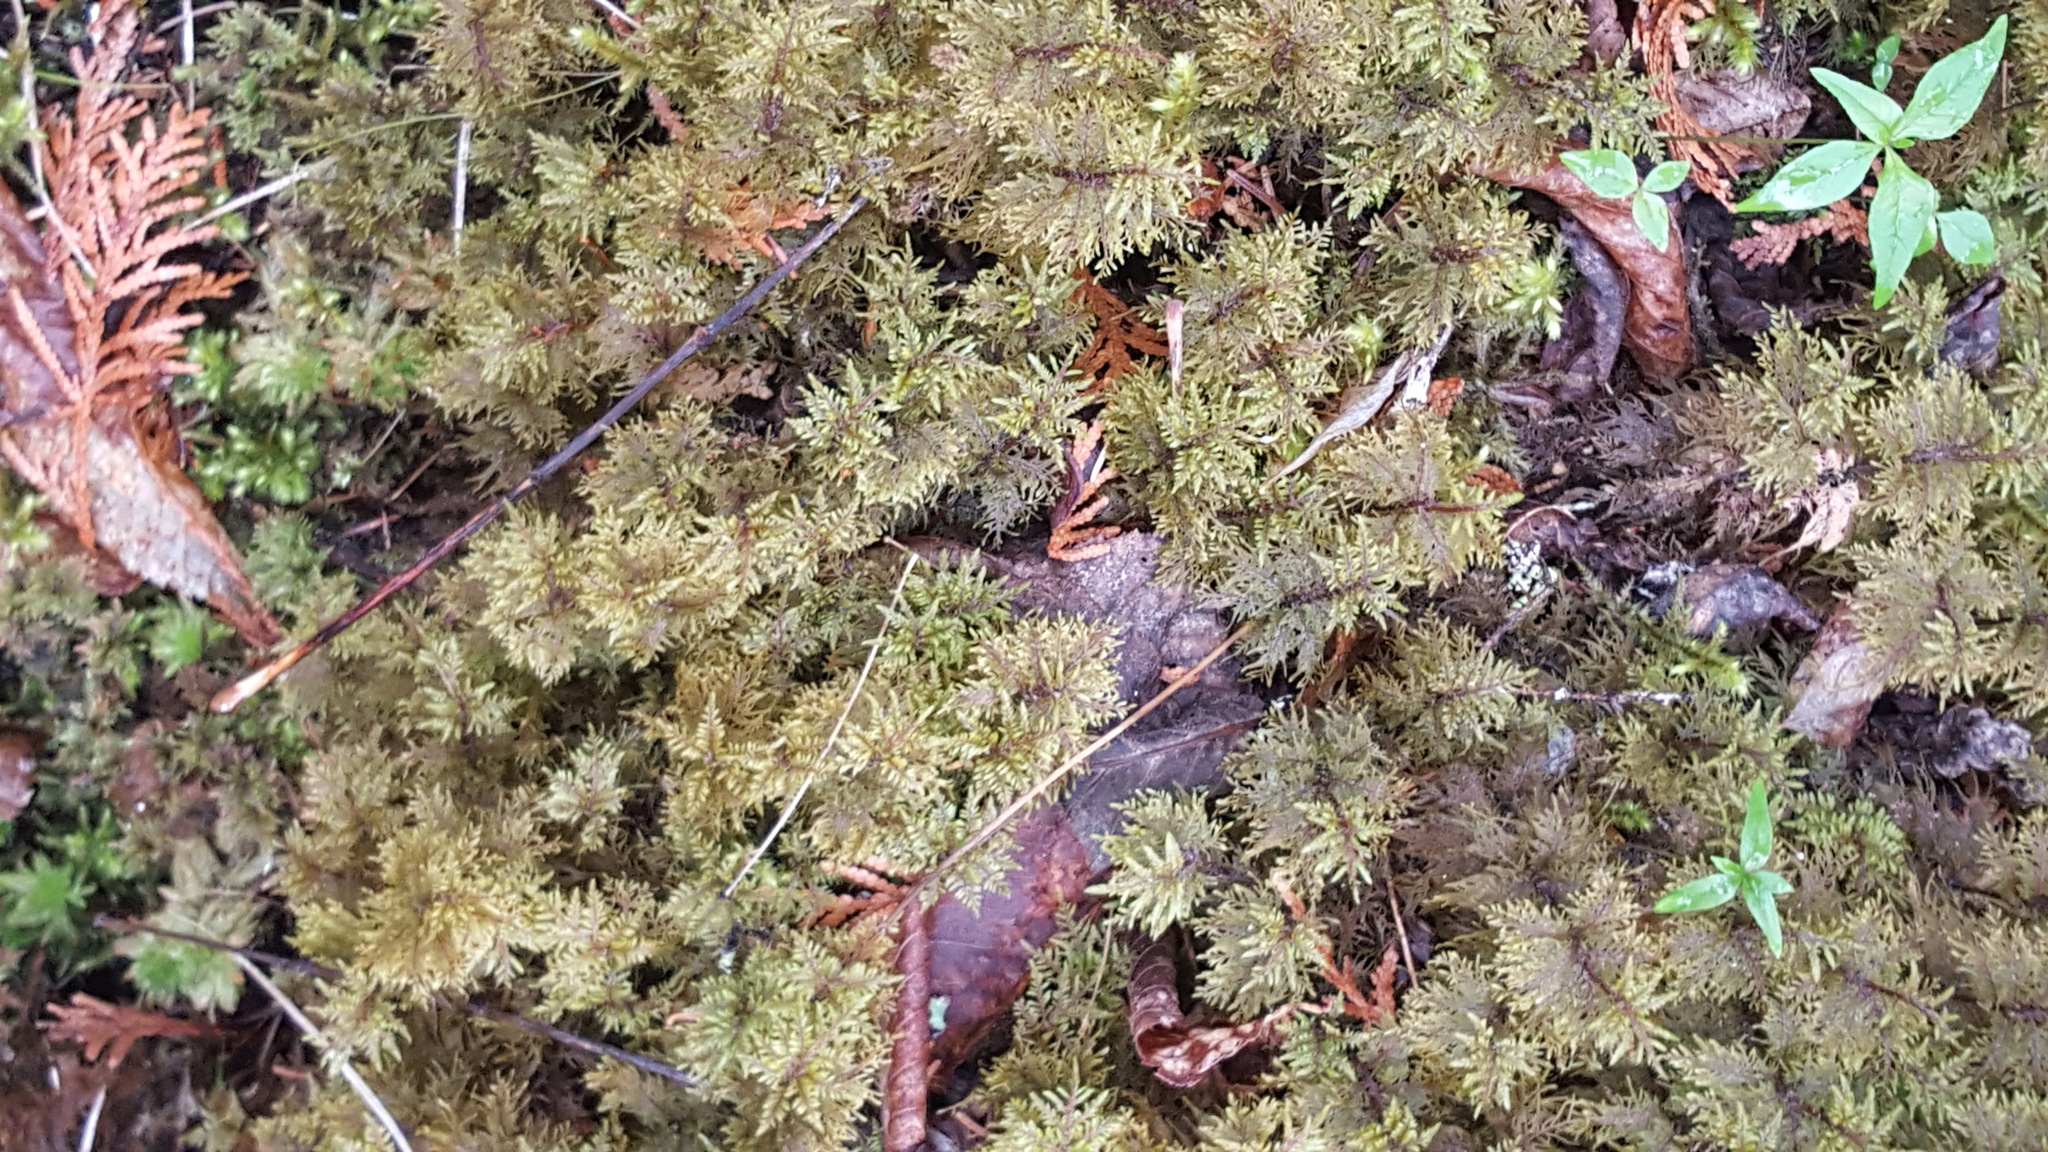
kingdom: Plantae
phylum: Bryophyta
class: Bryopsida
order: Hypnales
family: Hylocomiaceae
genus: Hylocomium
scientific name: Hylocomium splendens
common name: Stairstep moss
